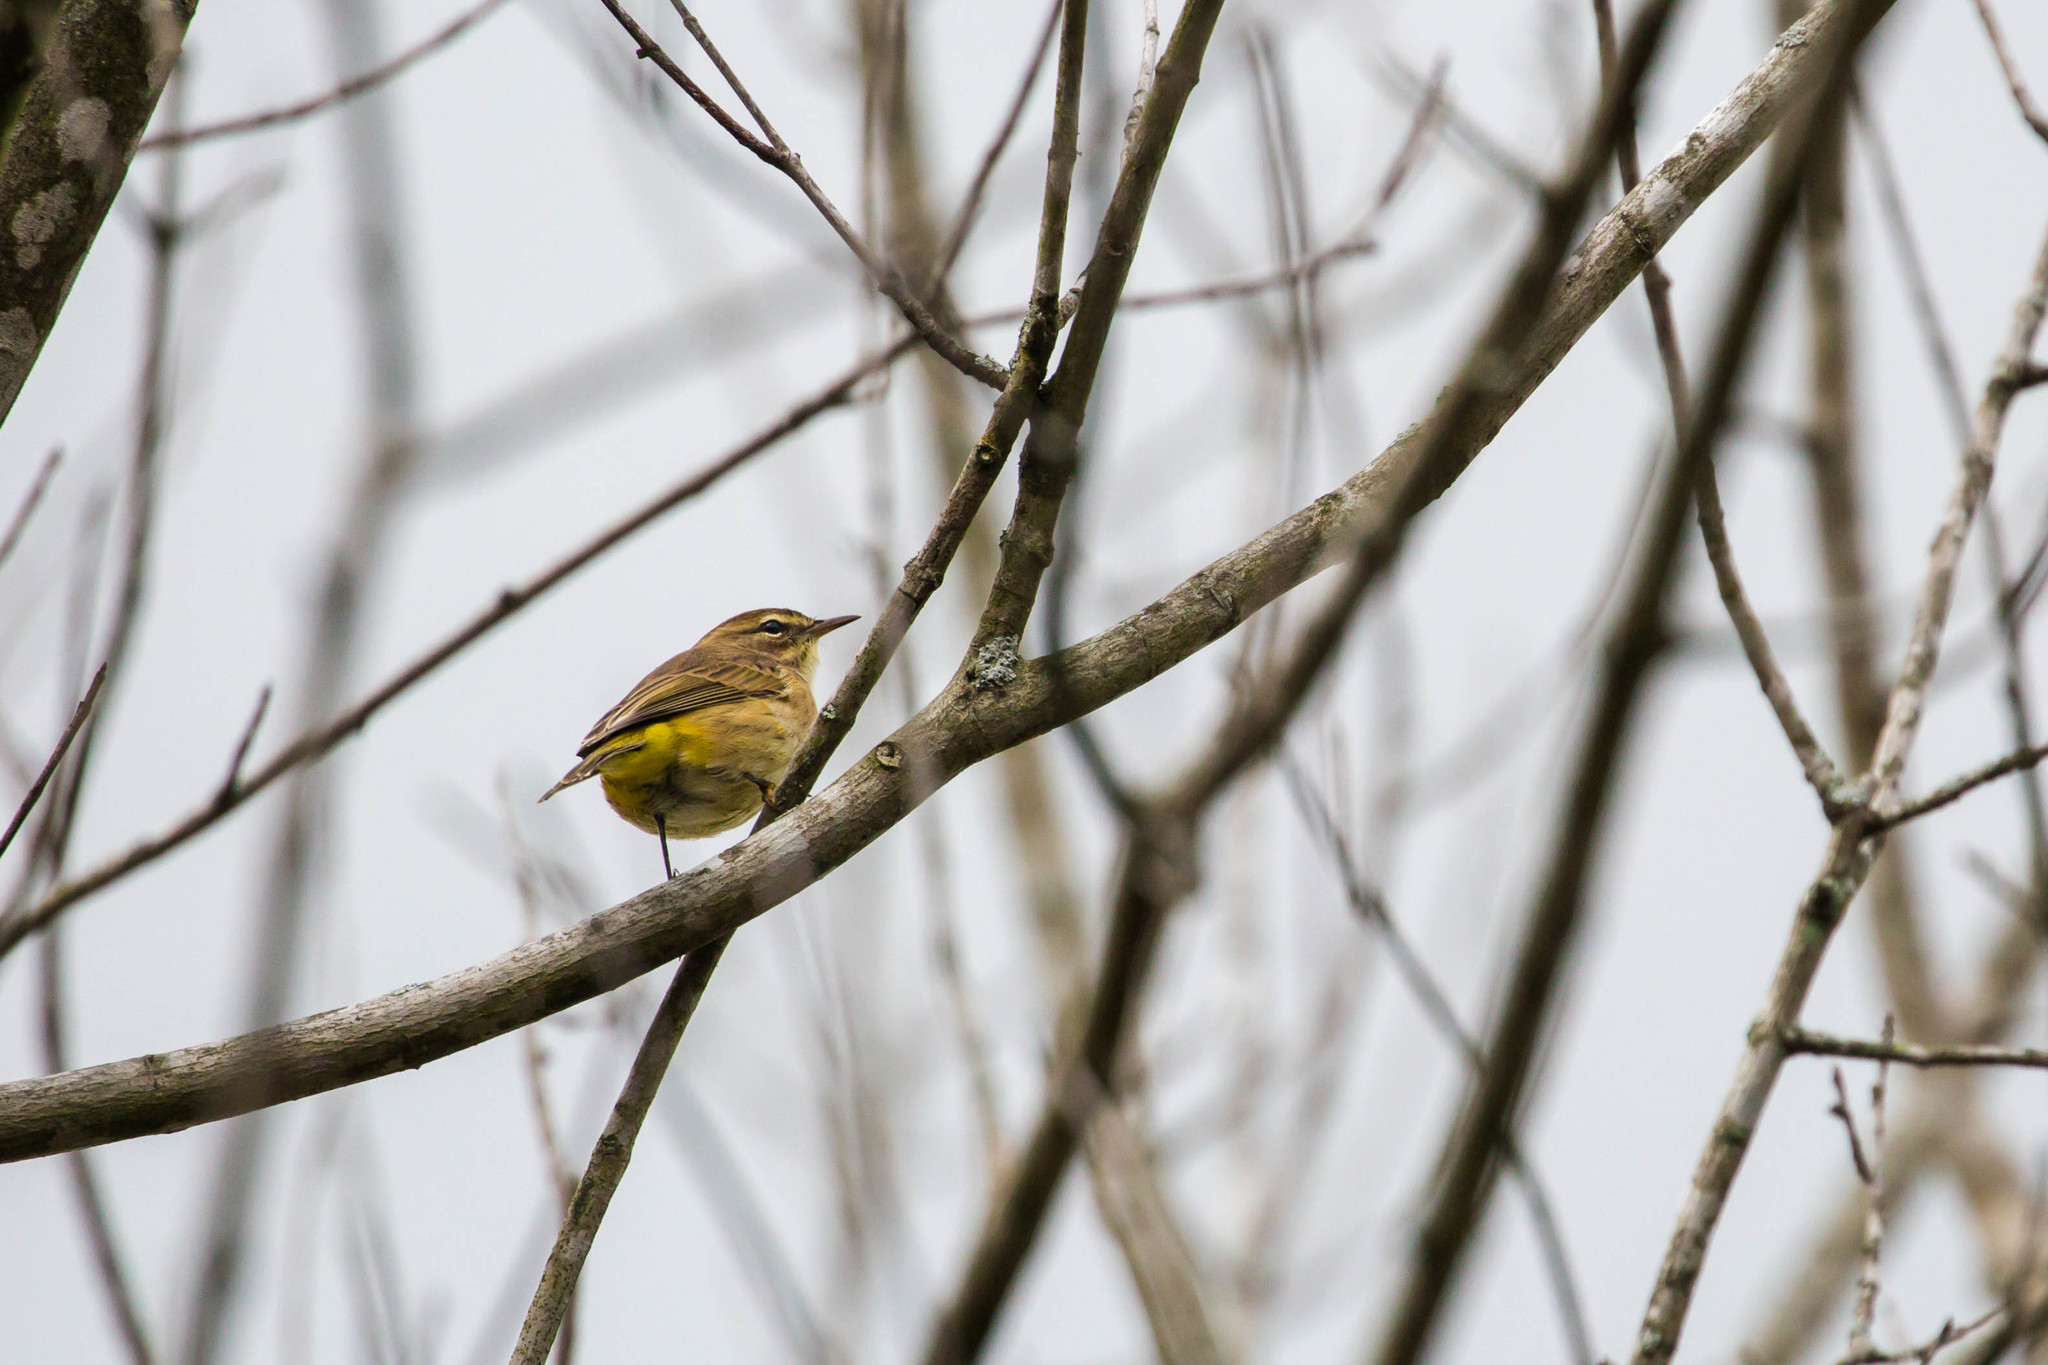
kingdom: Animalia
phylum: Chordata
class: Aves
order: Passeriformes
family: Parulidae
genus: Setophaga
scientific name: Setophaga palmarum
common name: Palm warbler
